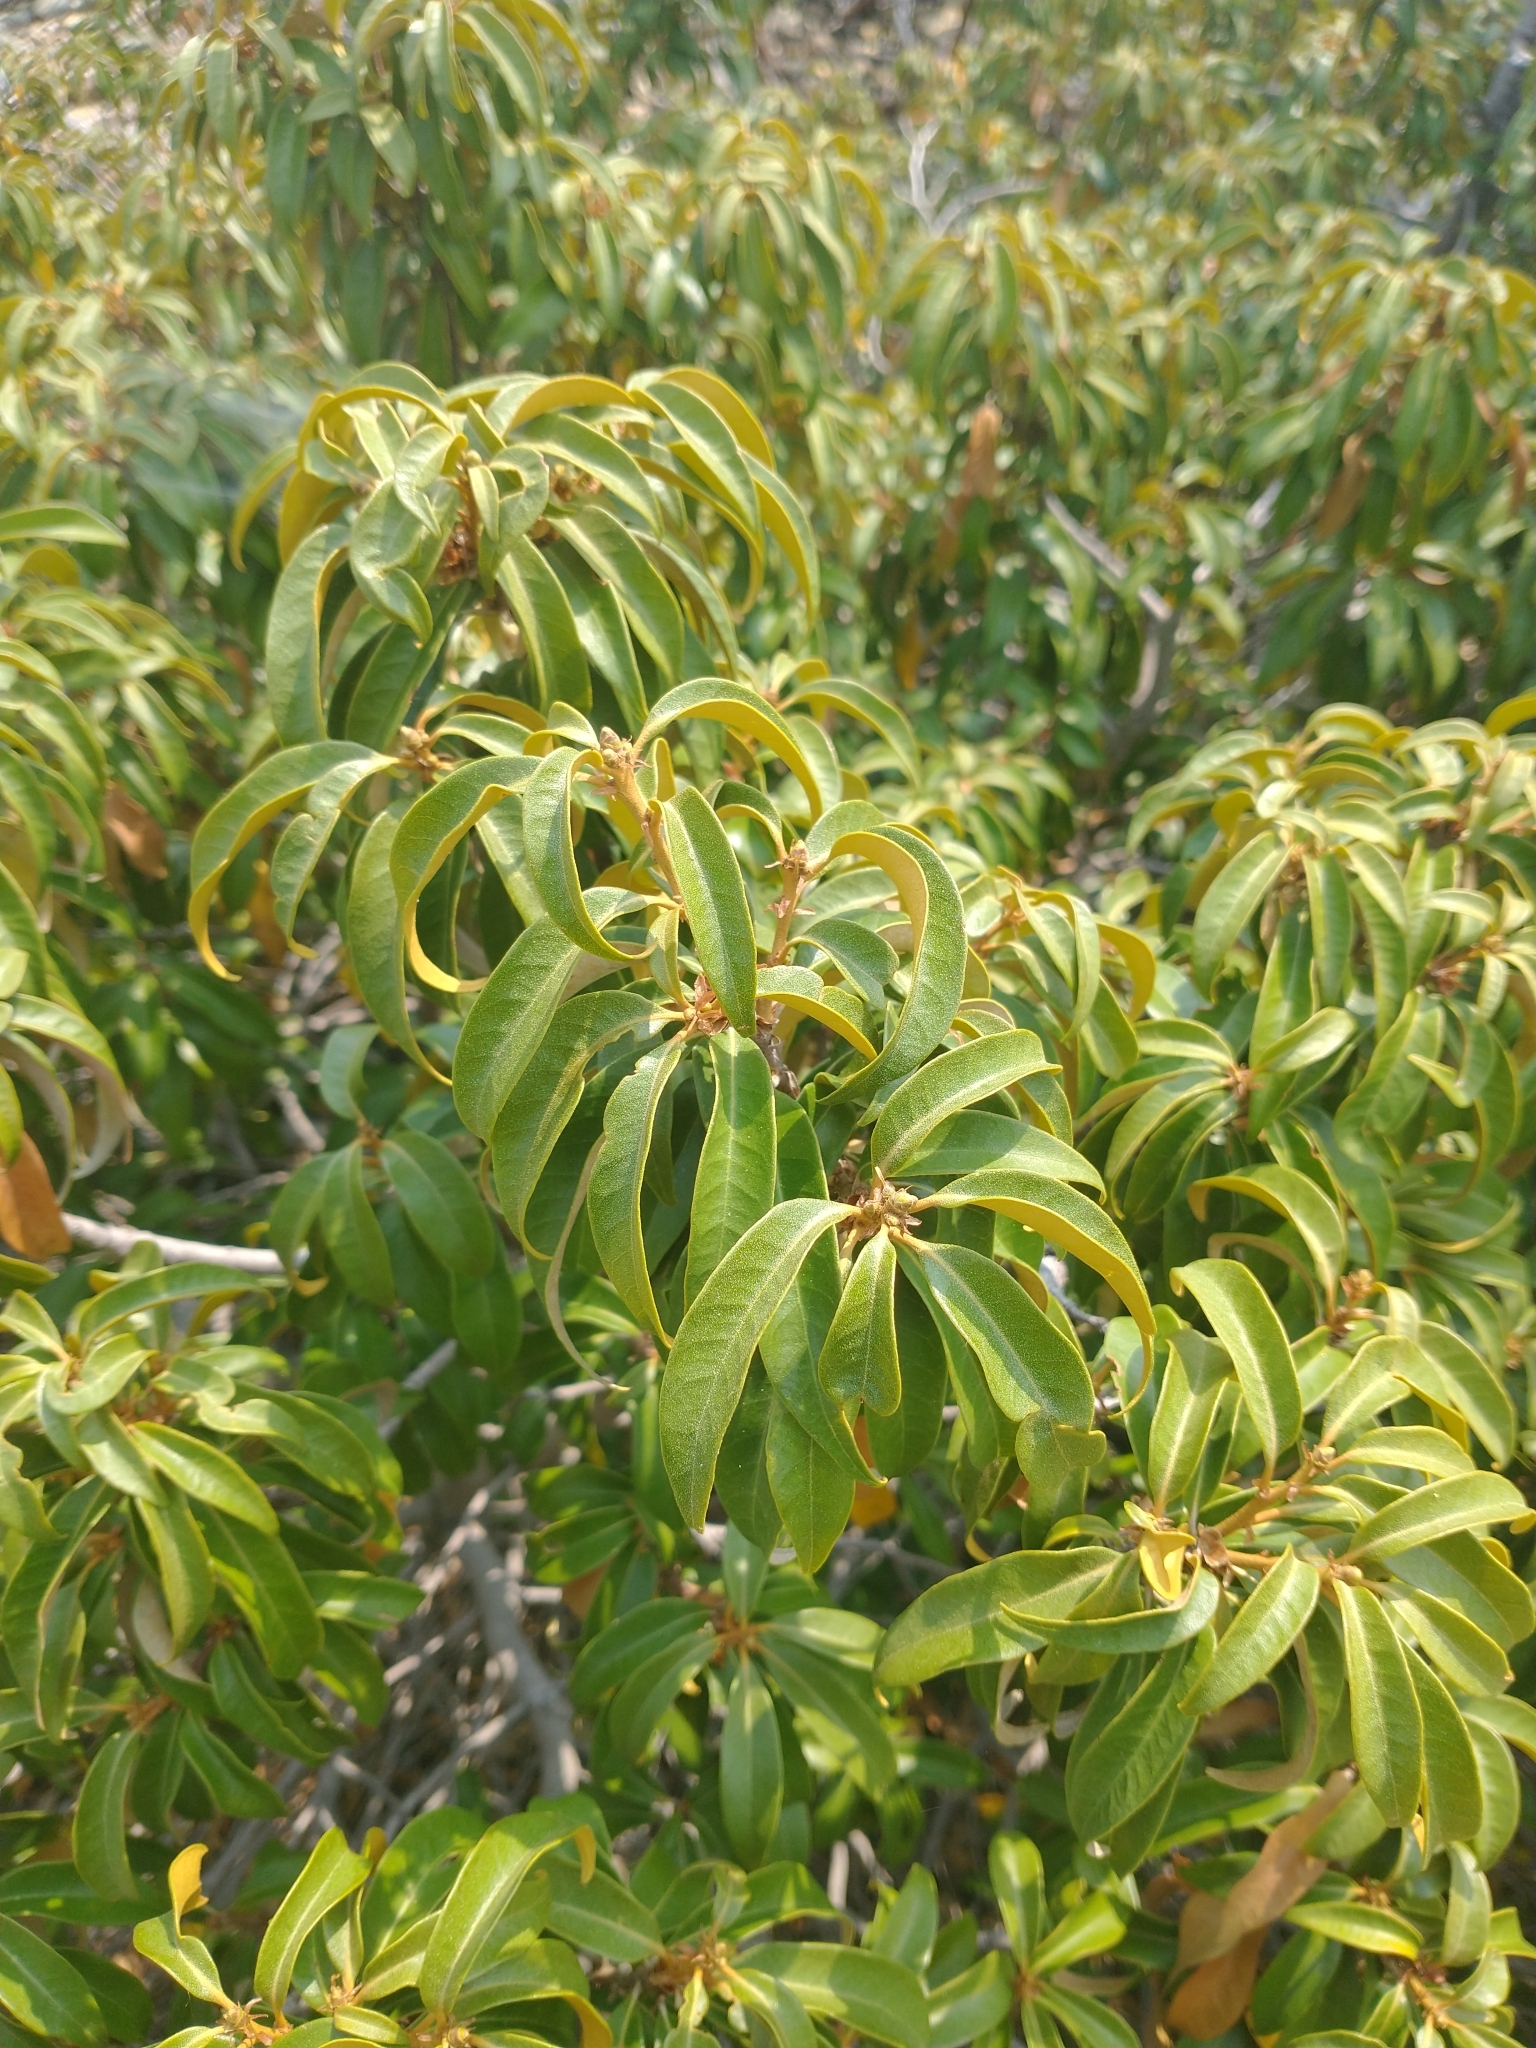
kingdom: Plantae
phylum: Tracheophyta
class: Magnoliopsida
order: Fagales
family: Fagaceae
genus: Chrysolepis
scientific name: Chrysolepis chrysophylla
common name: Giant chinquapin
